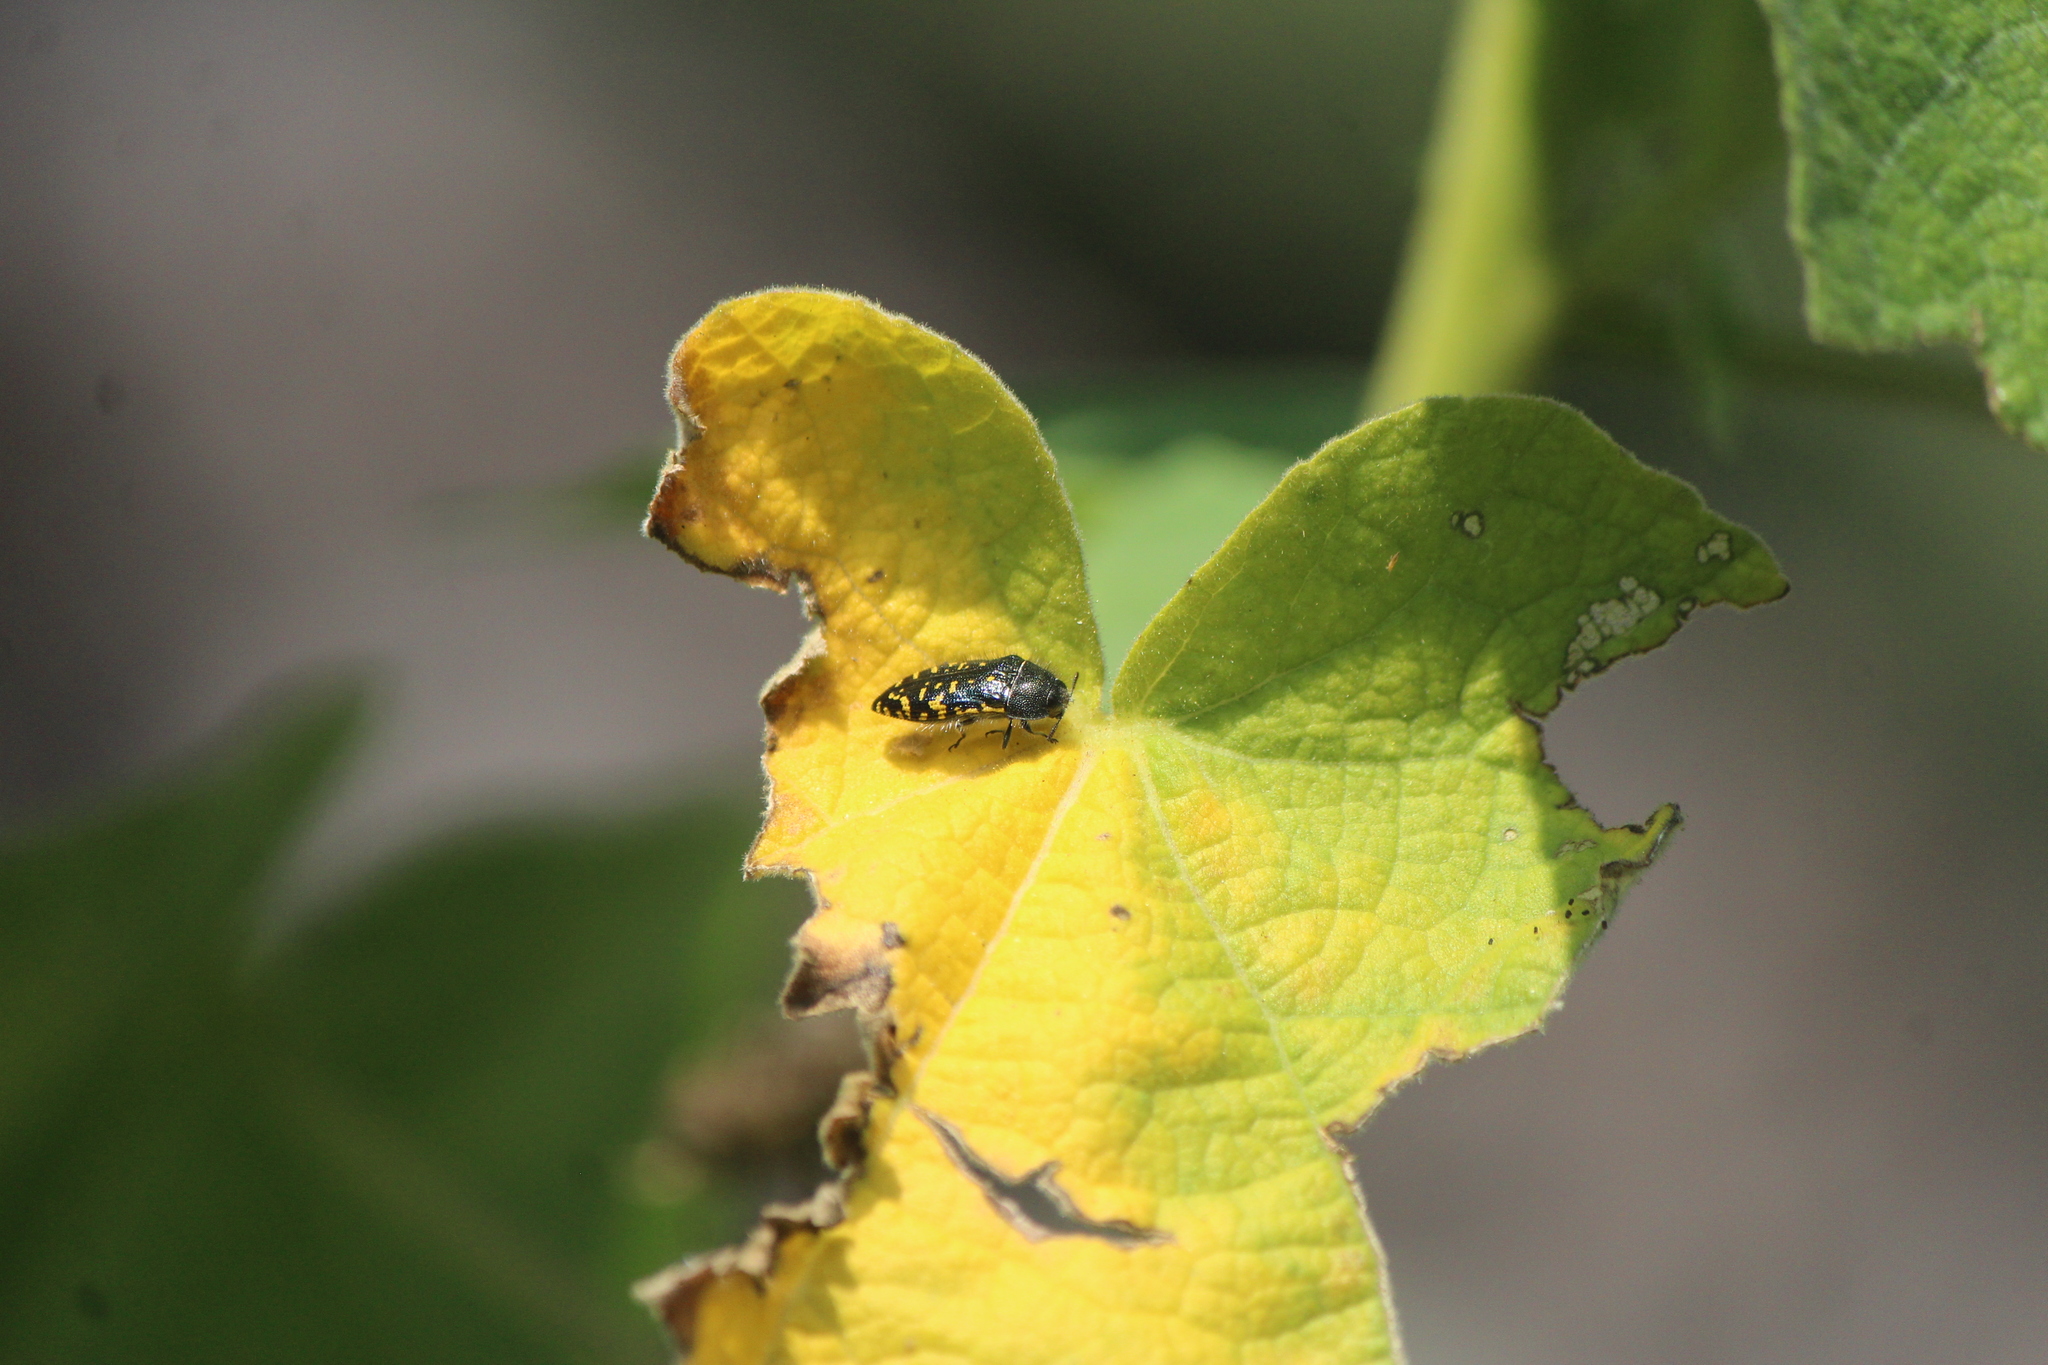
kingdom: Animalia
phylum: Arthropoda
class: Insecta
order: Coleoptera
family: Buprestidae
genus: Acmaeodera
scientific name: Acmaeodera flavopicta
